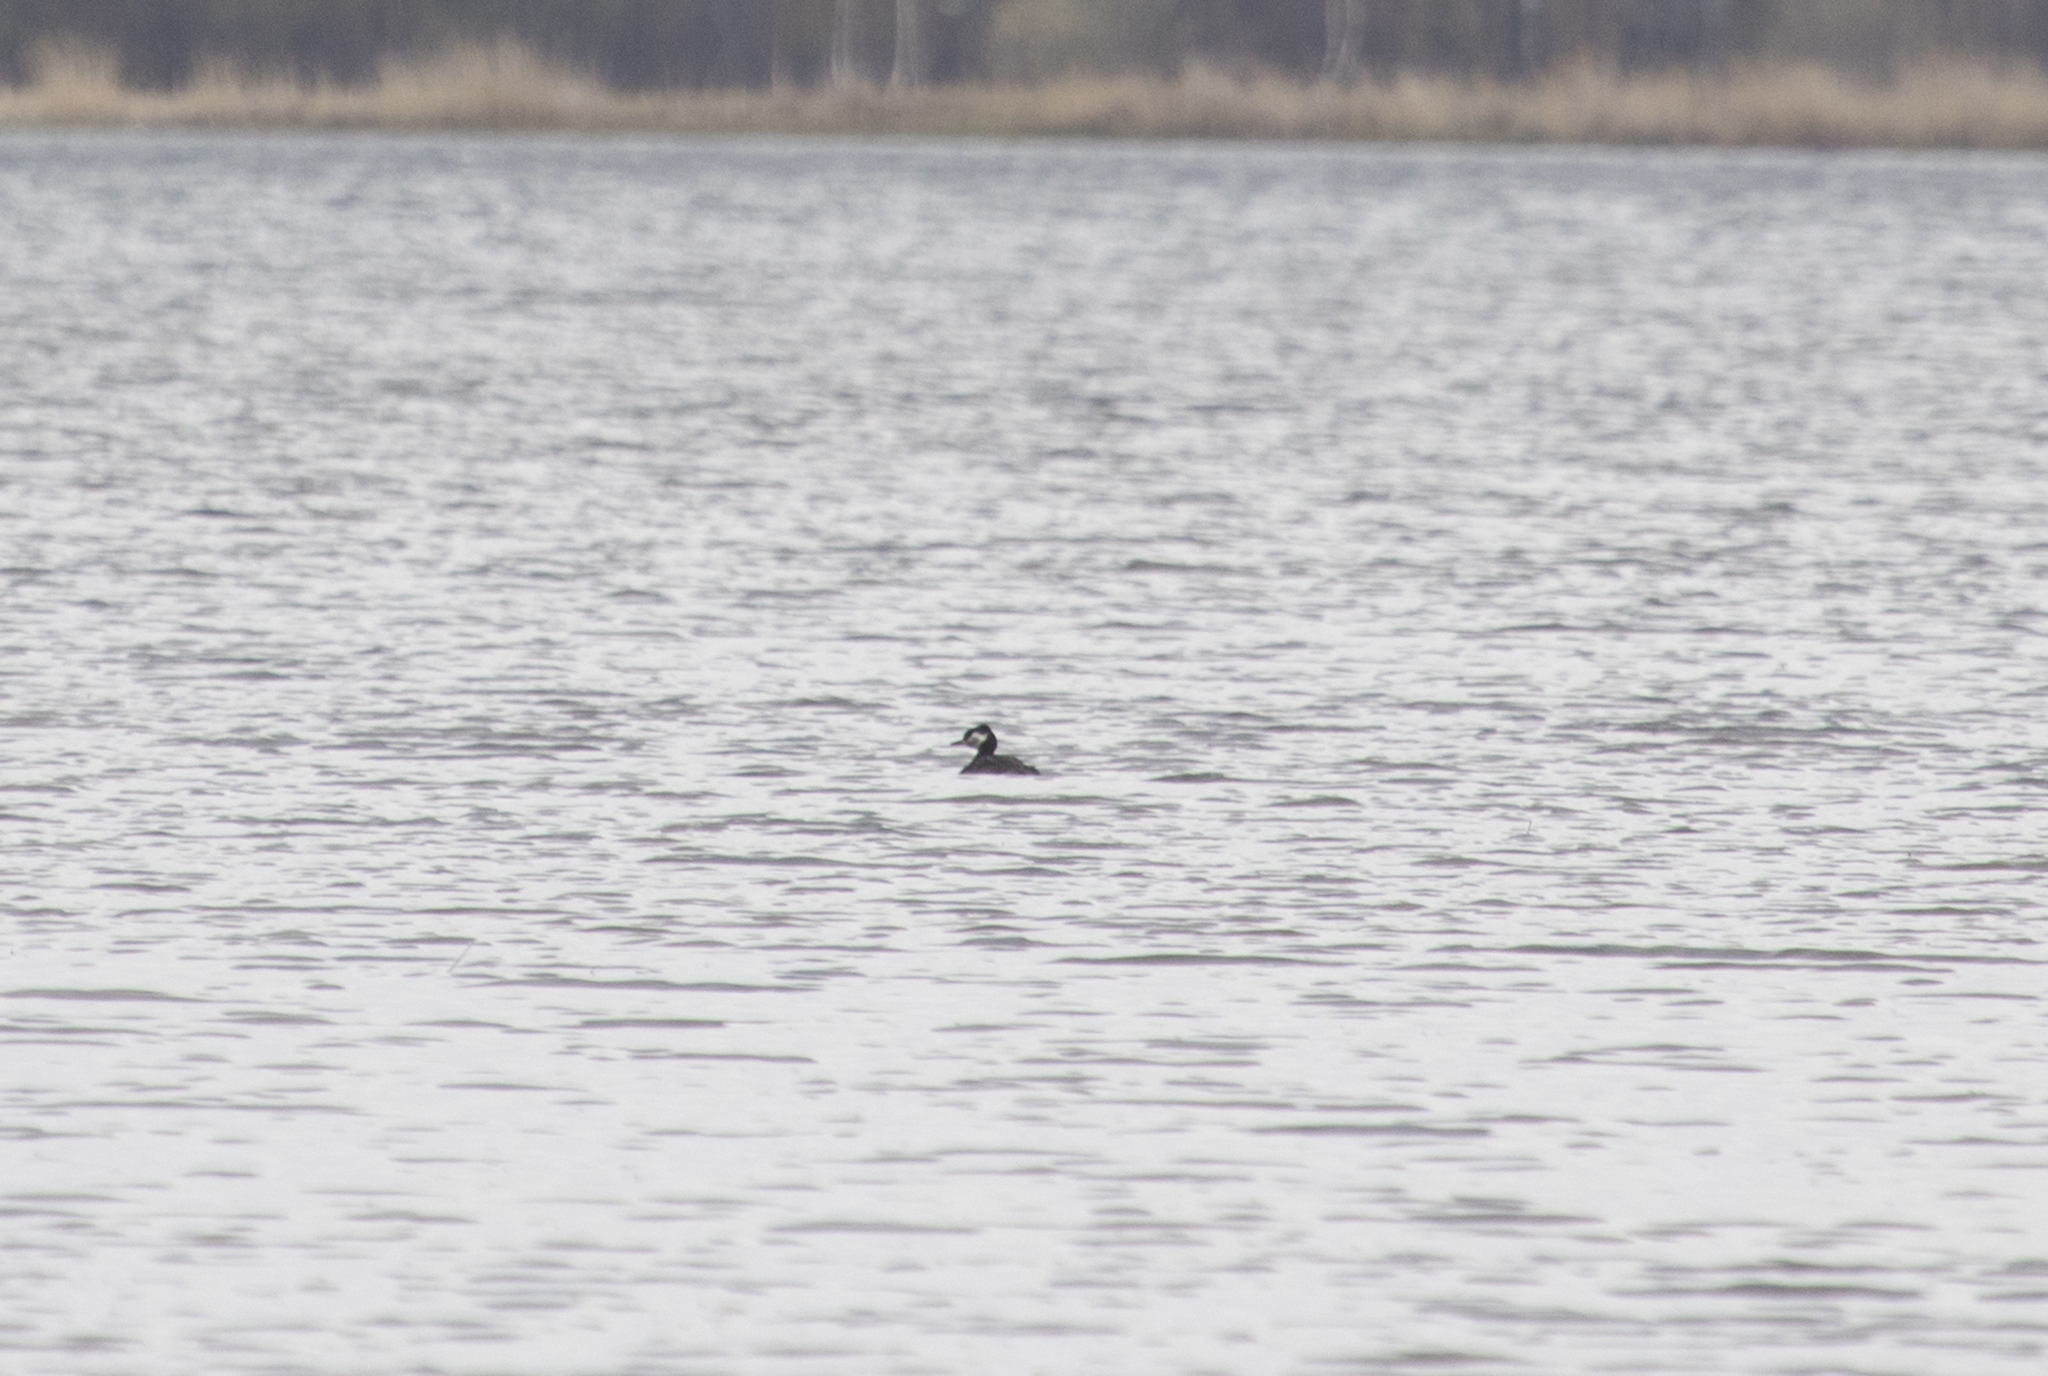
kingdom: Animalia
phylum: Chordata
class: Aves
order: Podicipediformes
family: Podicipedidae
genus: Podiceps
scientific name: Podiceps grisegena
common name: Red-necked grebe
